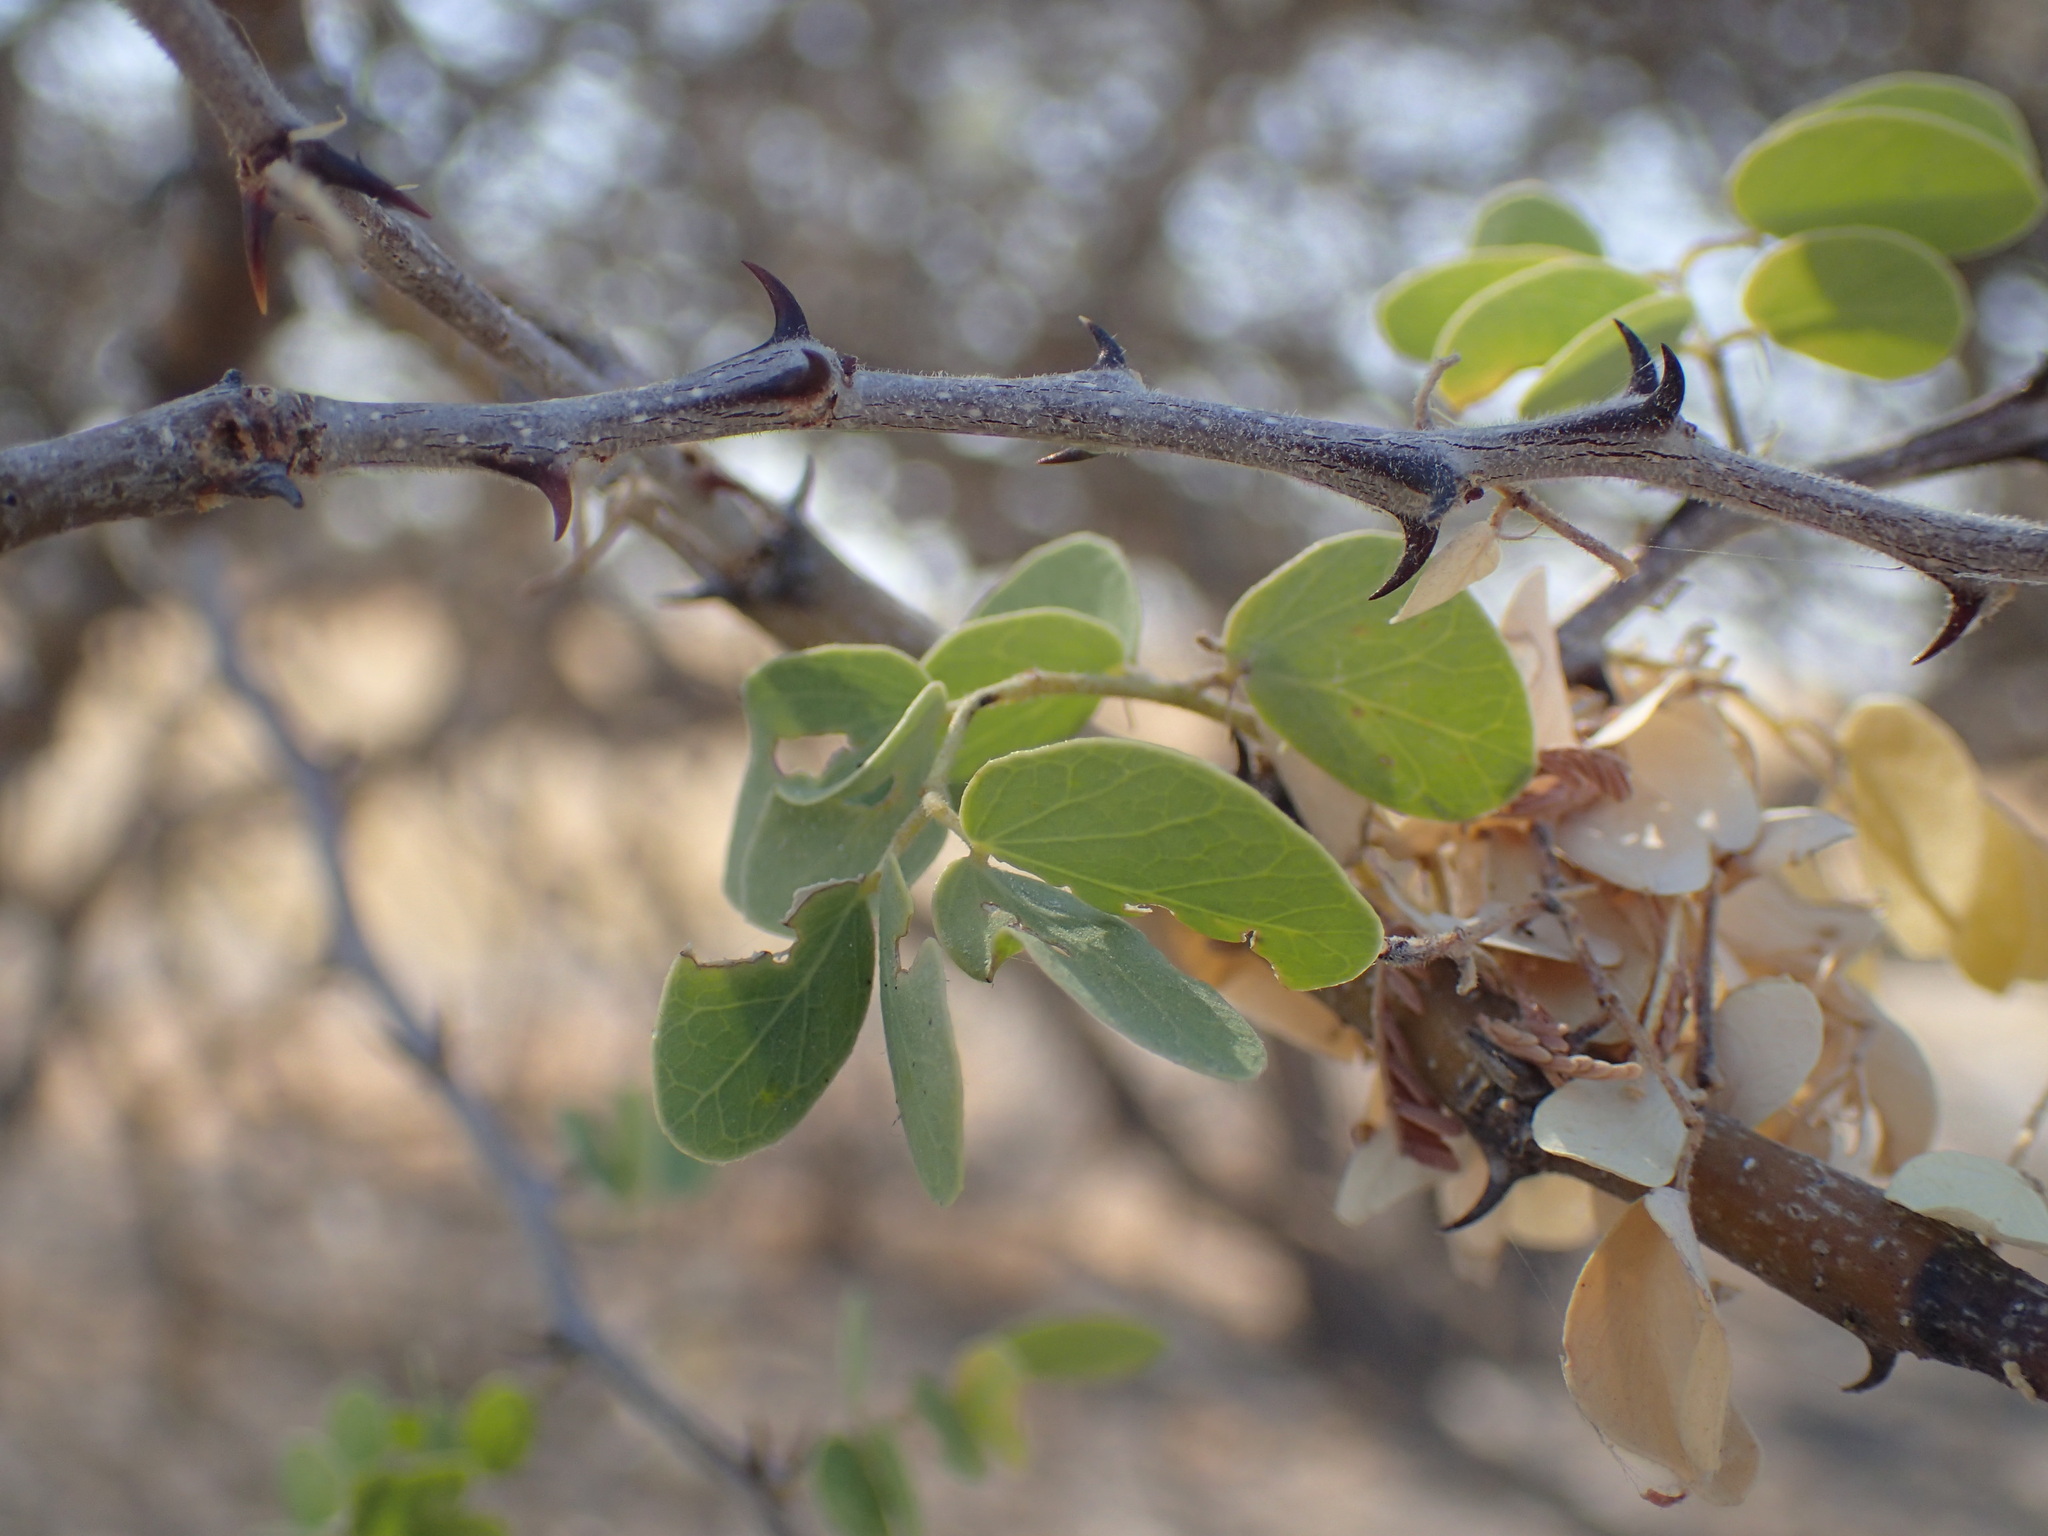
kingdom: Plantae
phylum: Tracheophyta
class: Magnoliopsida
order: Fabales
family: Fabaceae
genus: Senegalia
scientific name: Senegalia mellifera
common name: Hookthorn
